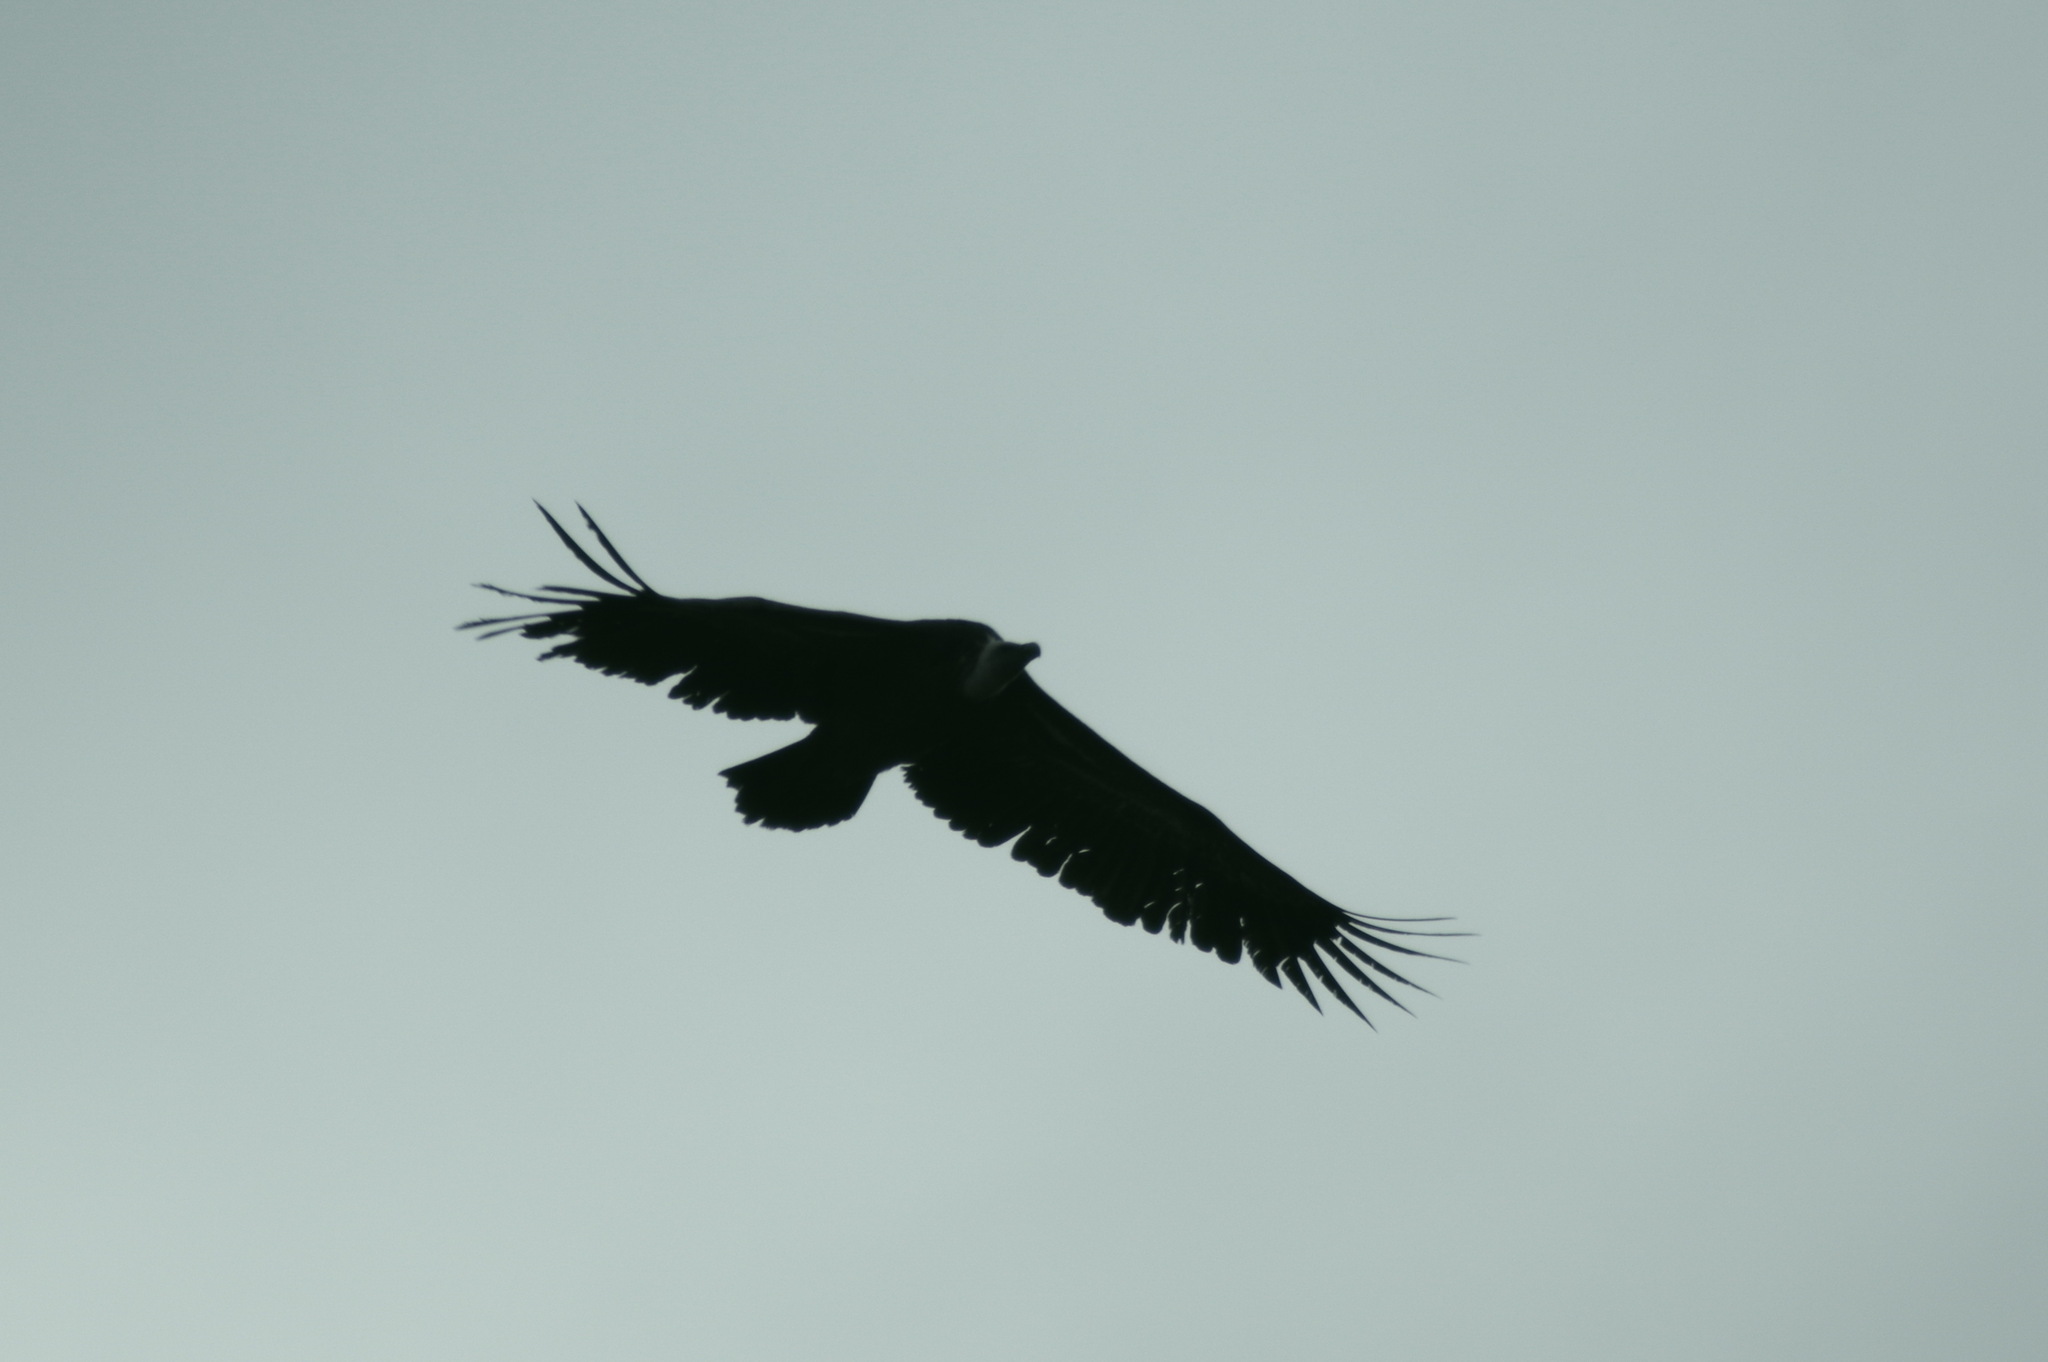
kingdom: Animalia
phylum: Chordata
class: Aves
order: Accipitriformes
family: Accipitridae
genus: Gyps
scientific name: Gyps fulvus
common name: Griffon vulture
